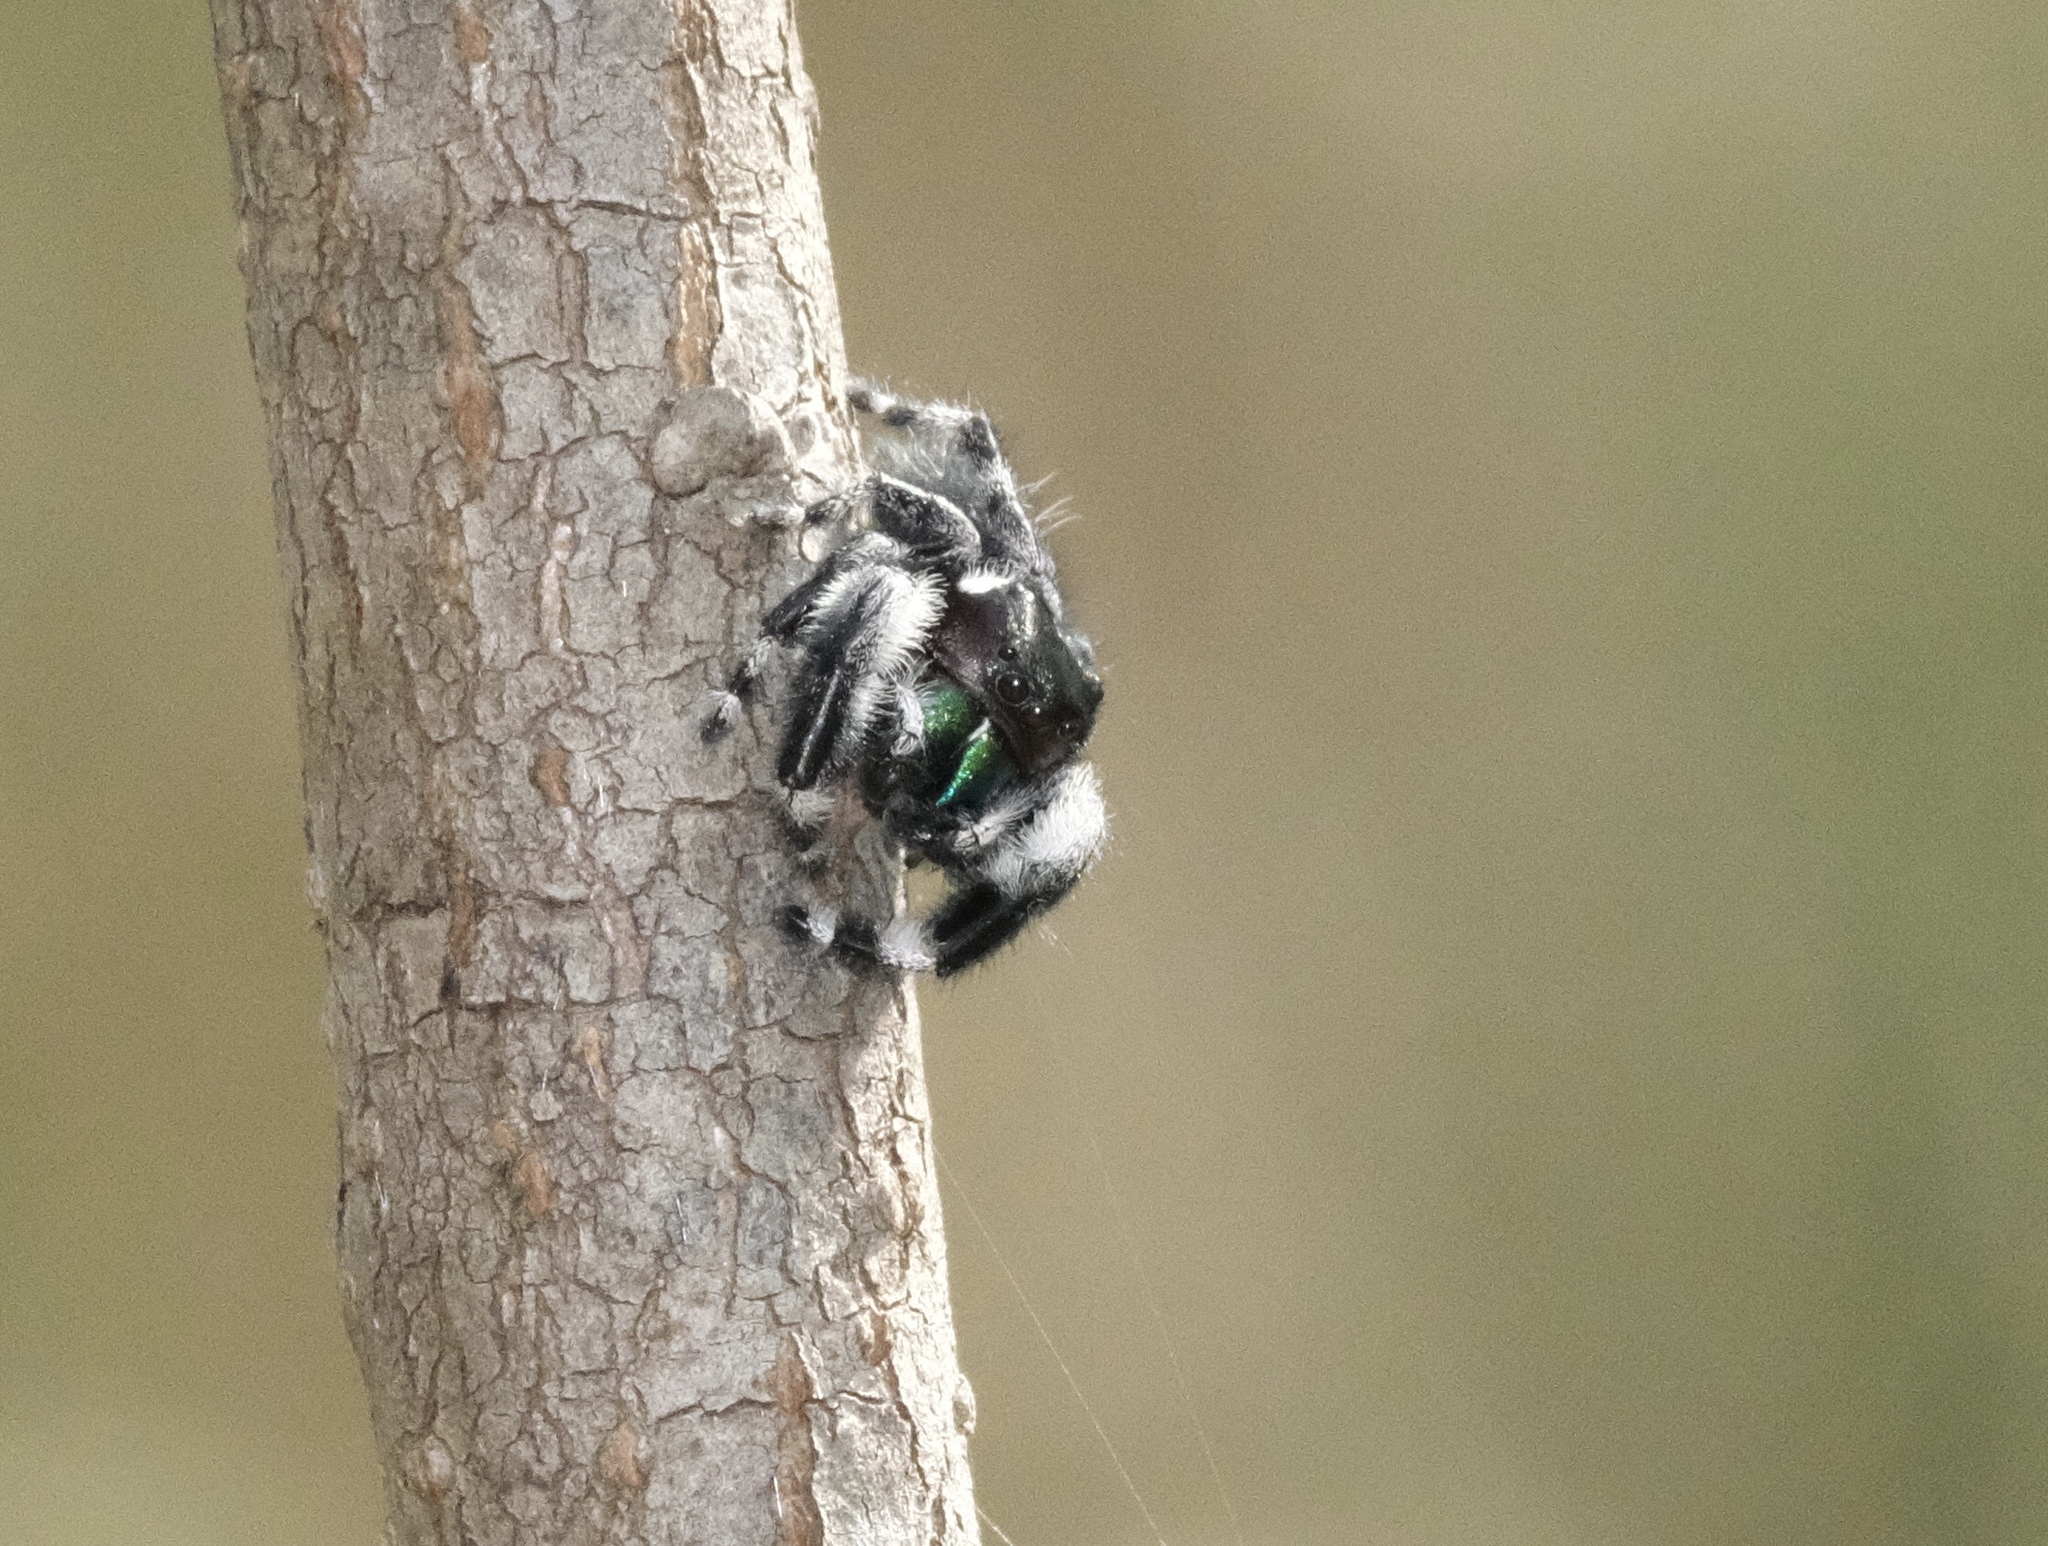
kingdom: Animalia
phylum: Arthropoda
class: Arachnida
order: Araneae
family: Salticidae
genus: Phidippus
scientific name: Phidippus audax
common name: Bold jumper
